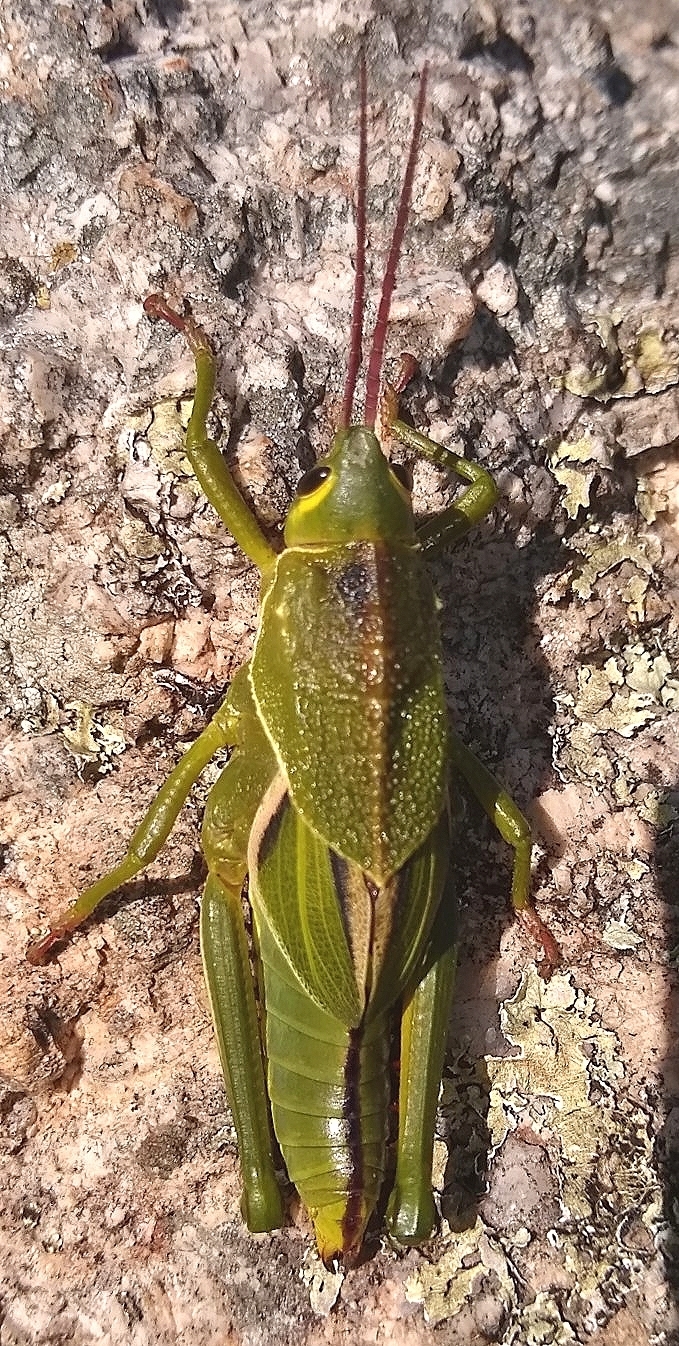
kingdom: Animalia
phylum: Arthropoda
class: Insecta
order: Orthoptera
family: Romaleidae
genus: Staleochlora
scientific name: Staleochlora viridicata
